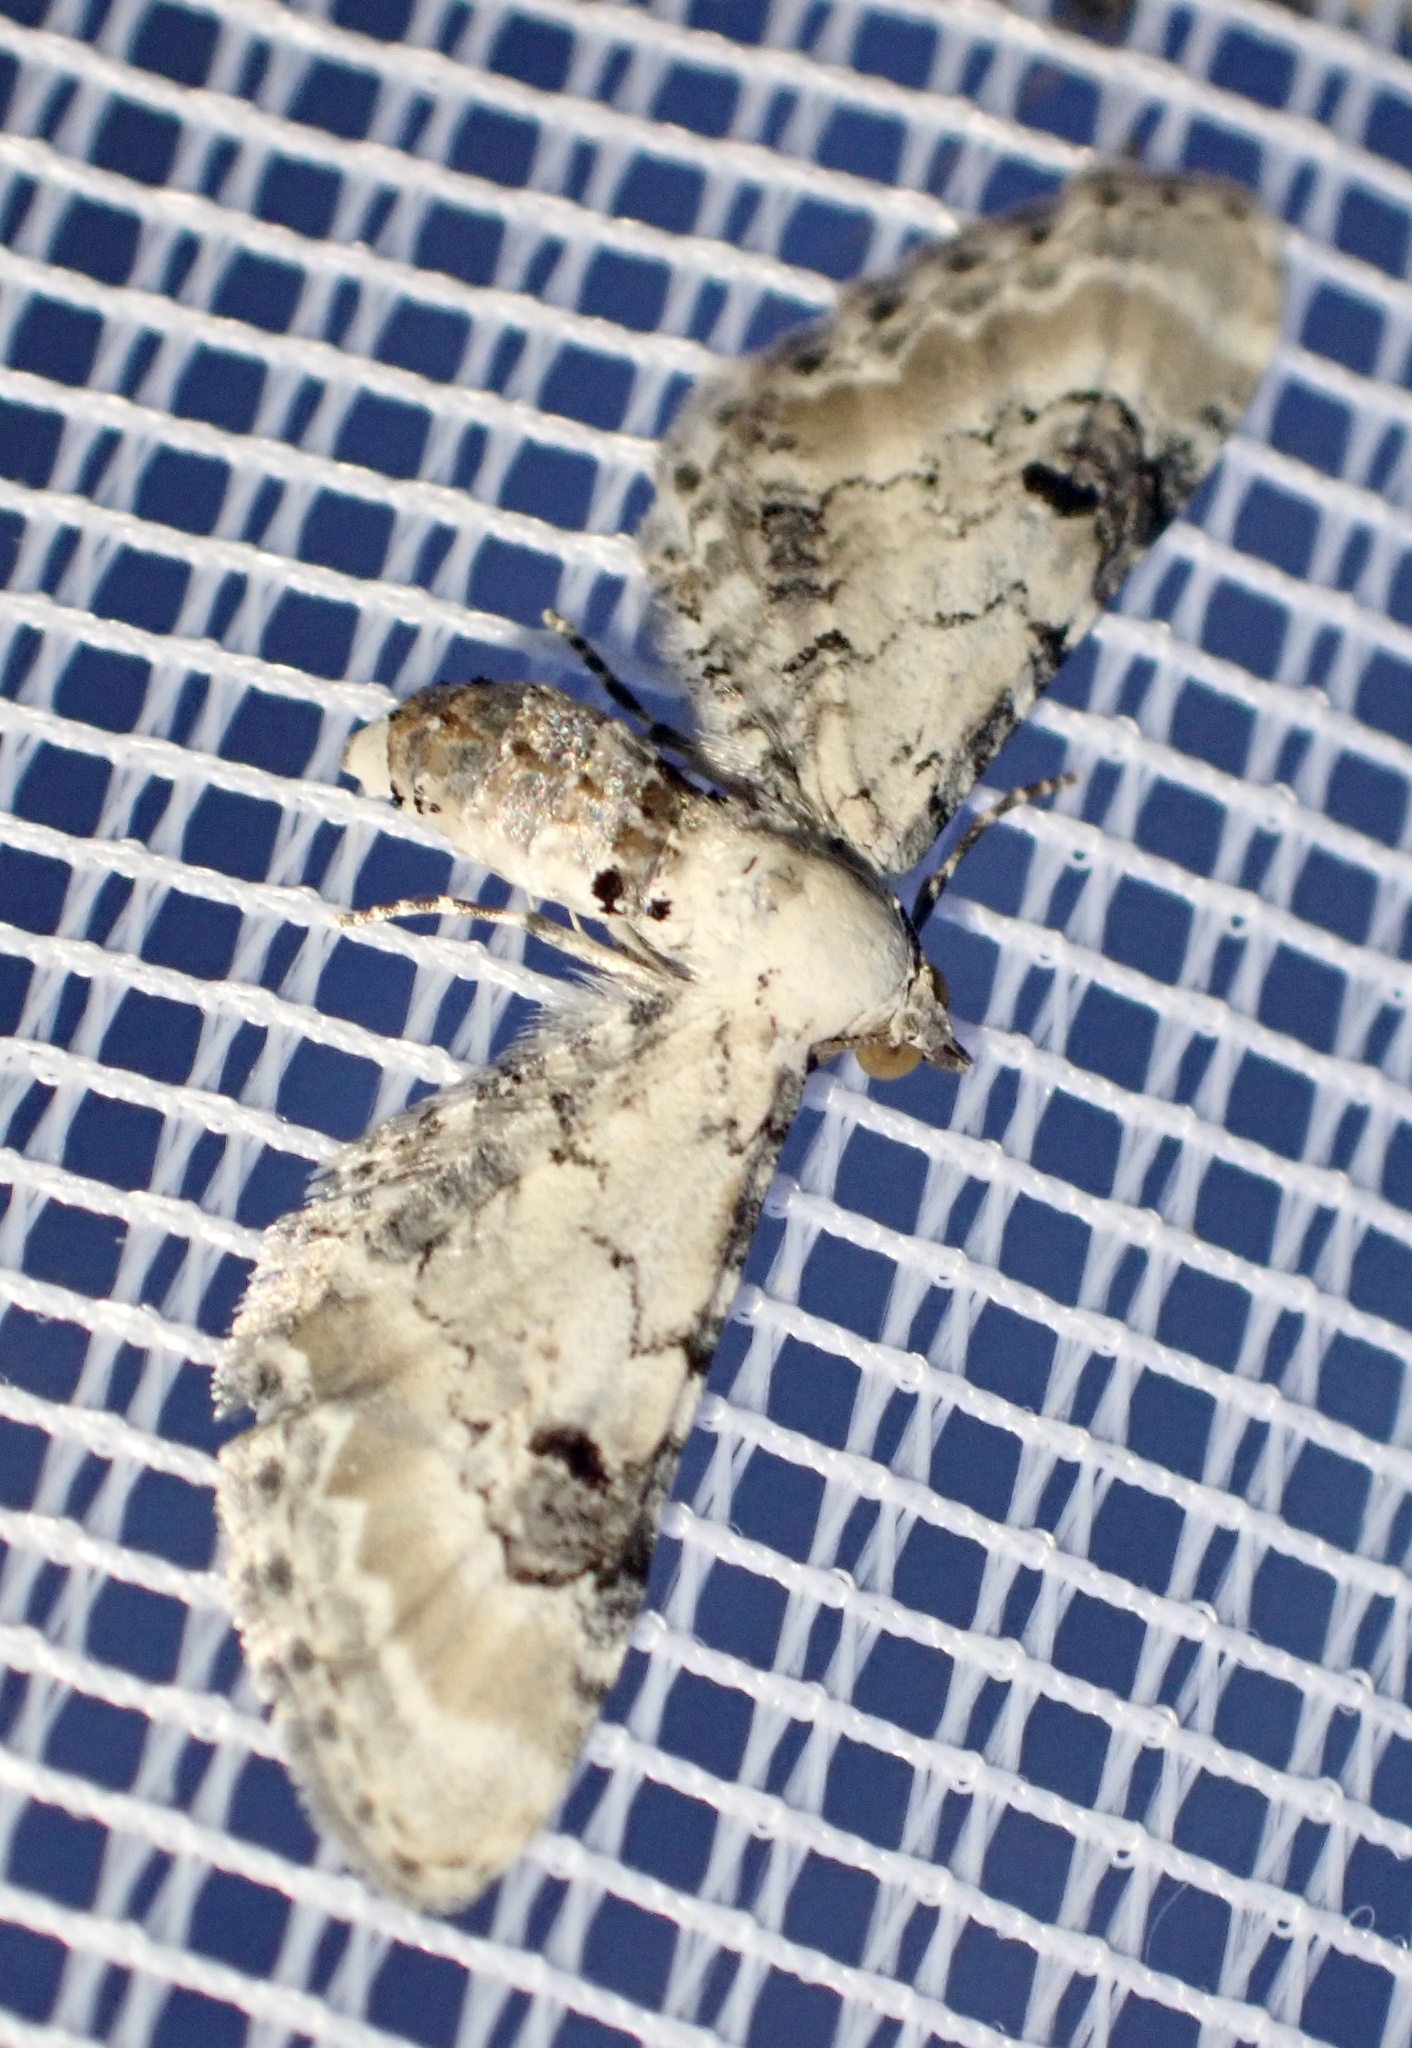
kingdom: Animalia
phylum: Arthropoda
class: Insecta
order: Lepidoptera
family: Geometridae
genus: Eupithecia
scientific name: Eupithecia centaureata
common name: Lime-speck pug
